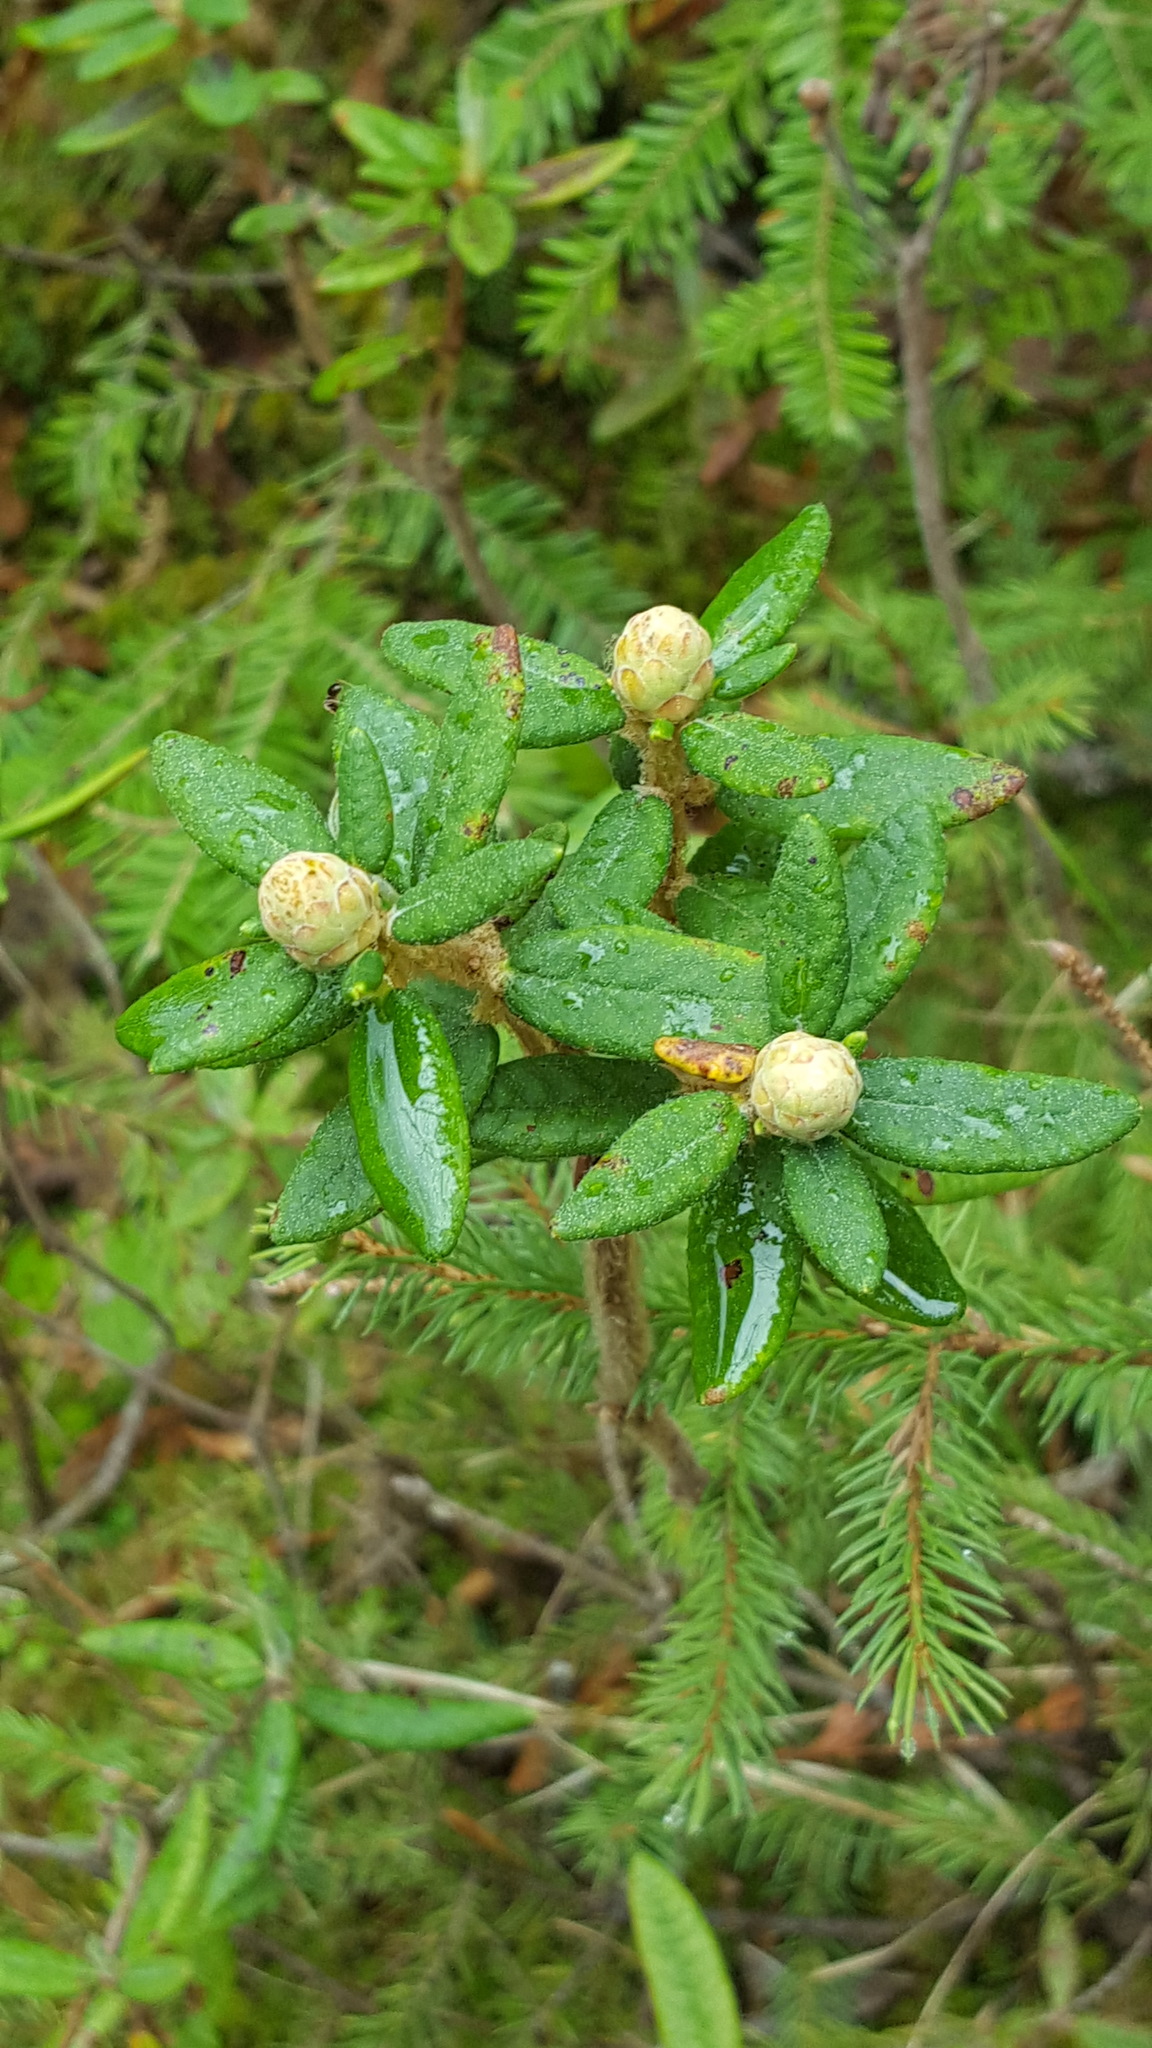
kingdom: Plantae
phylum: Tracheophyta
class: Magnoliopsida
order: Ericales
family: Ericaceae
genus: Rhododendron
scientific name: Rhododendron groenlandicum
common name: Bog labrador tea
